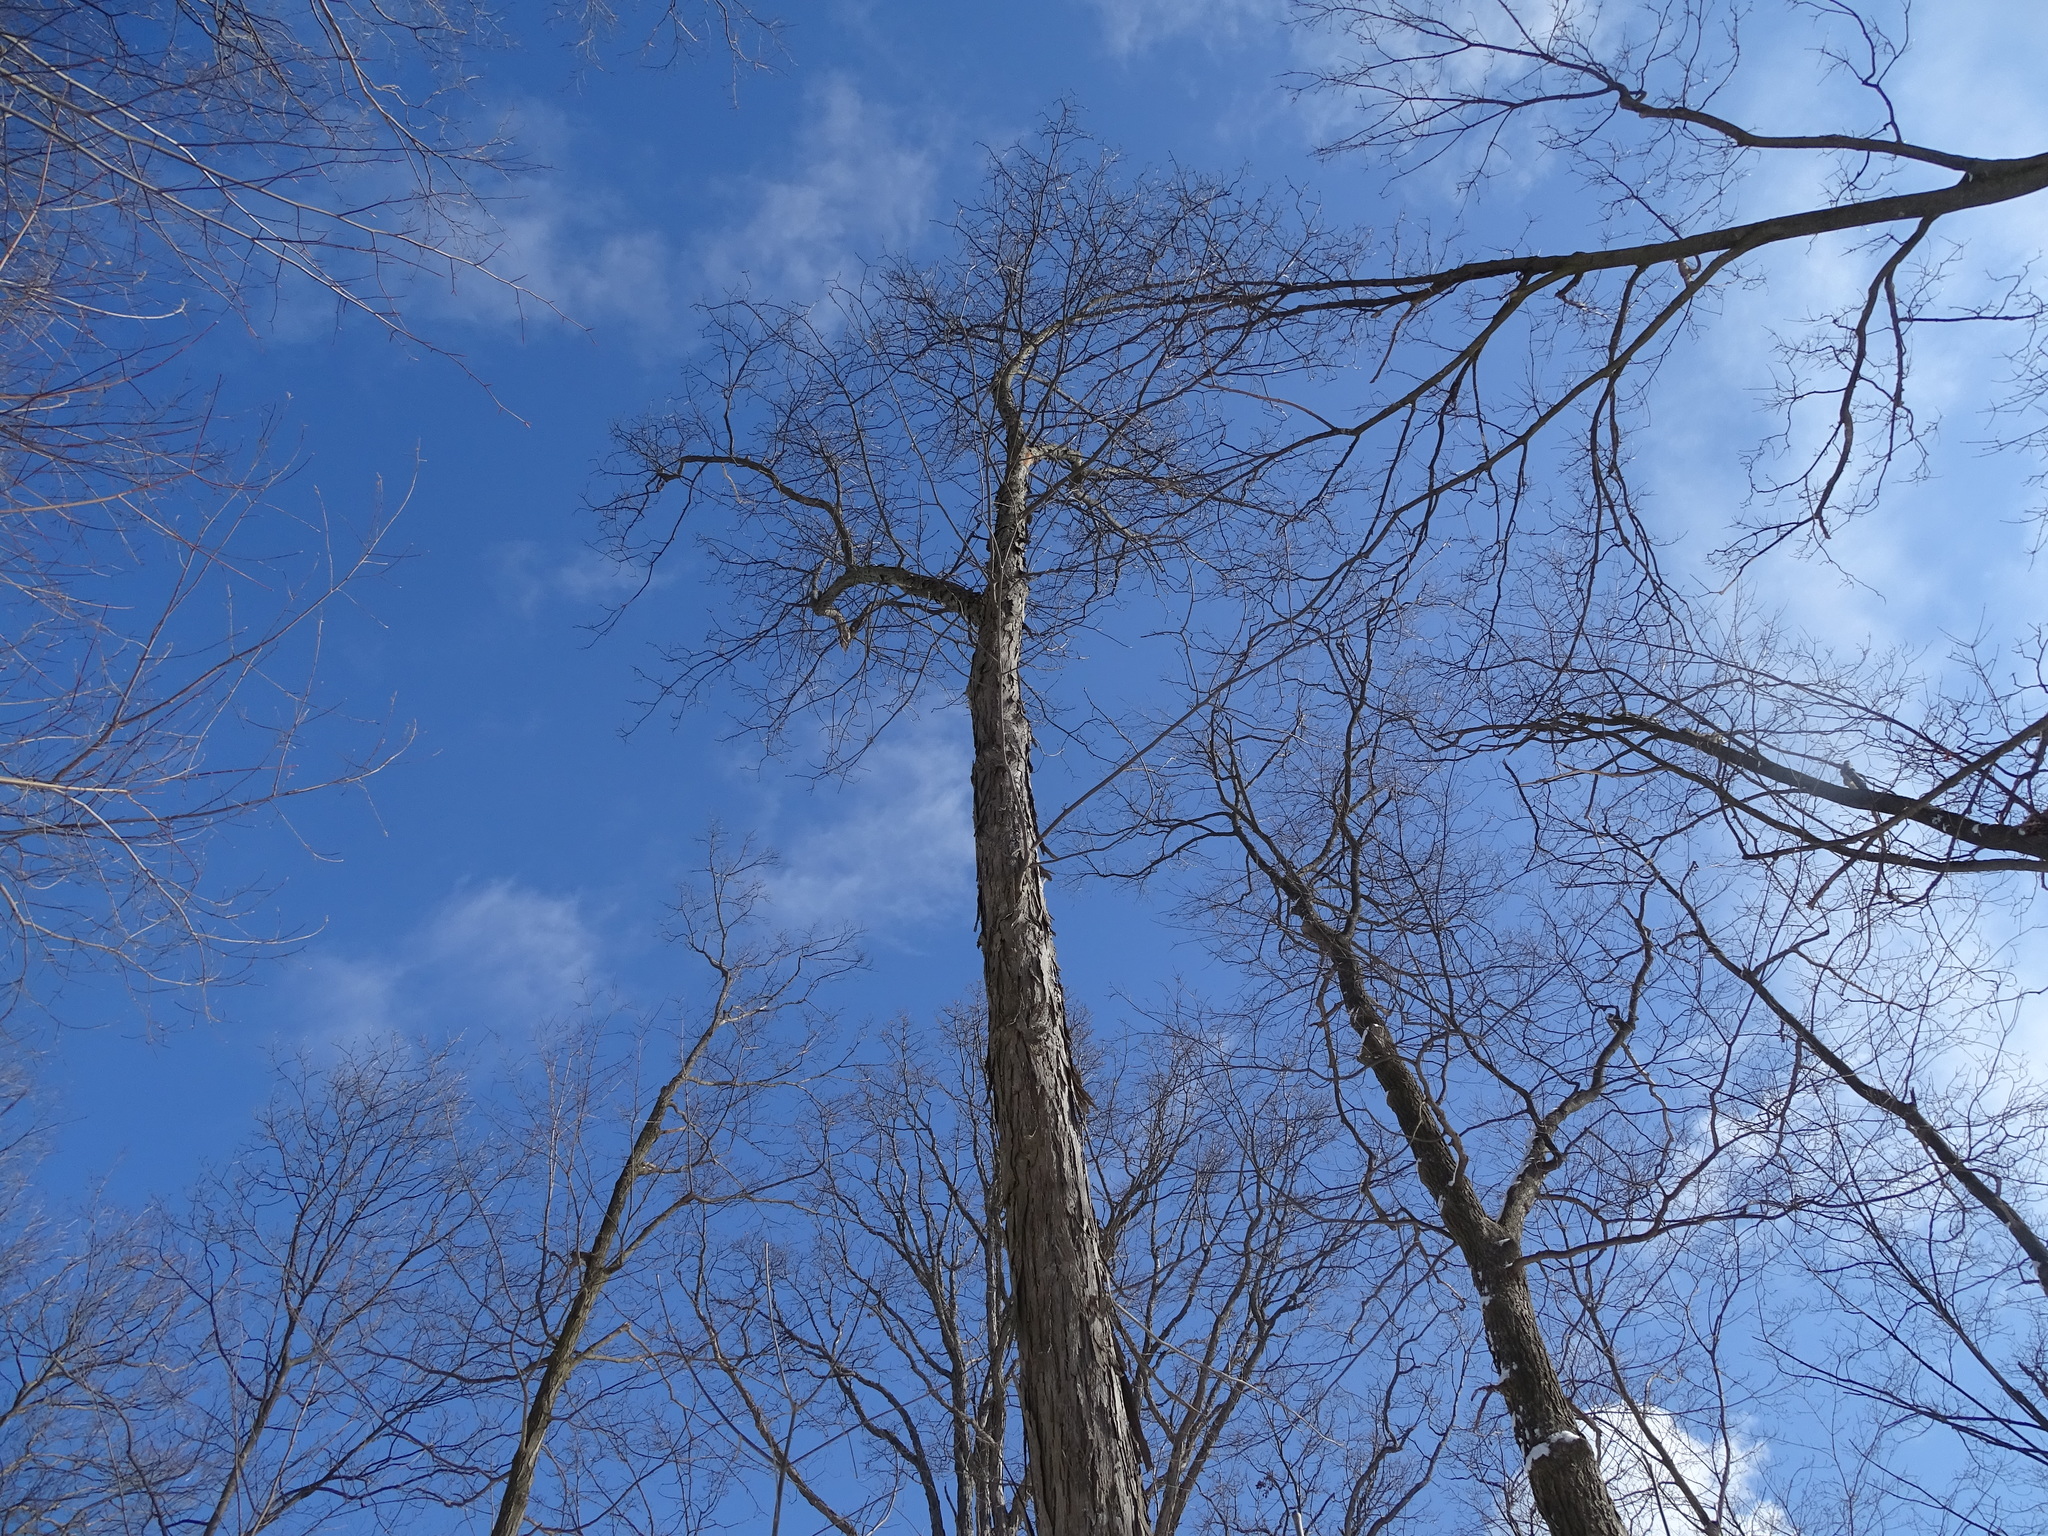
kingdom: Plantae
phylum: Tracheophyta
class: Magnoliopsida
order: Fagales
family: Juglandaceae
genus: Carya
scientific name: Carya ovata
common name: Shagbark hickory
